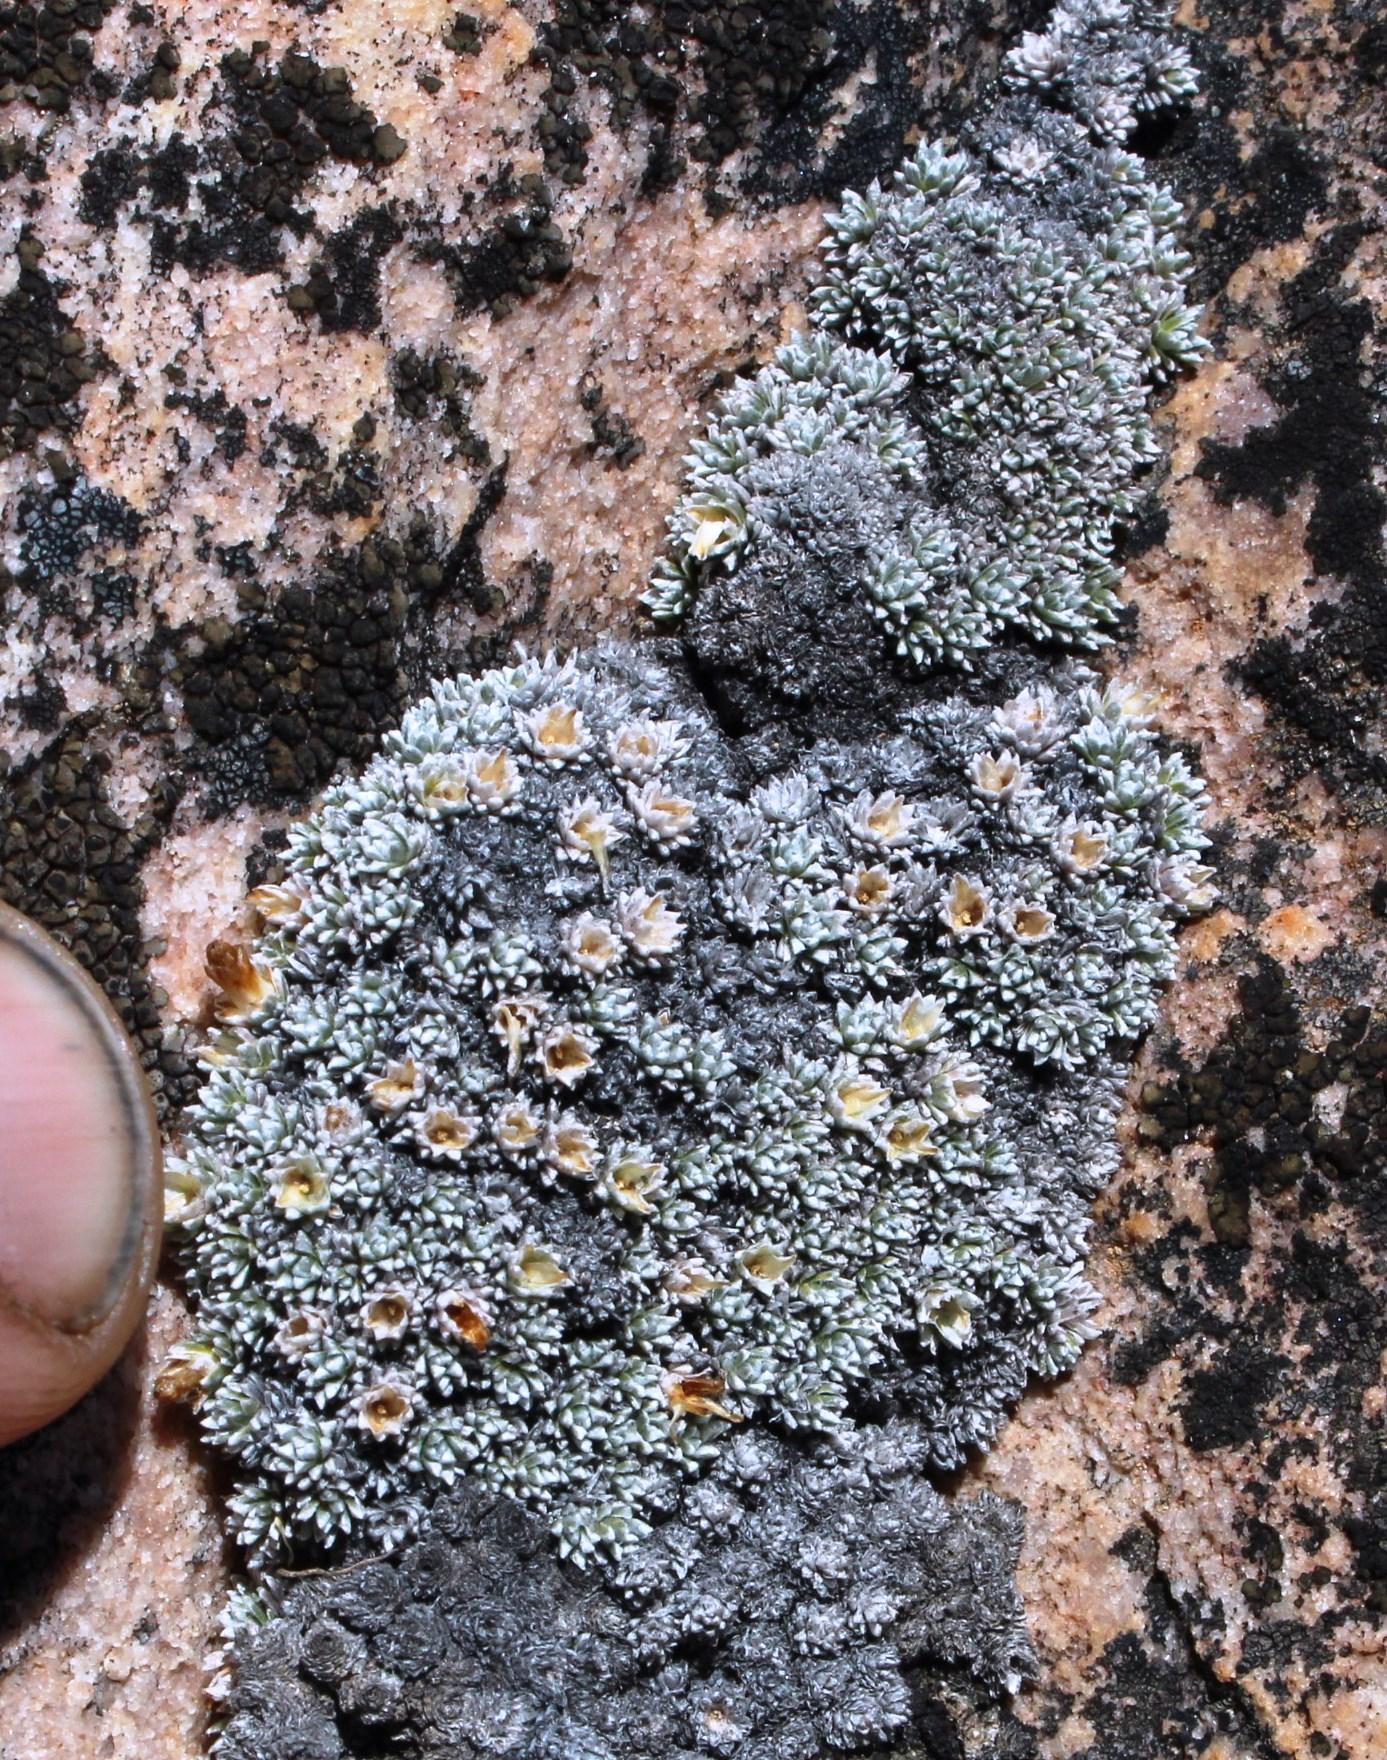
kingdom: Plantae
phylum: Tracheophyta
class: Magnoliopsida
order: Asterales
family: Asteraceae
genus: Muscosomorphe
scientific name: Muscosomorphe aretioides
